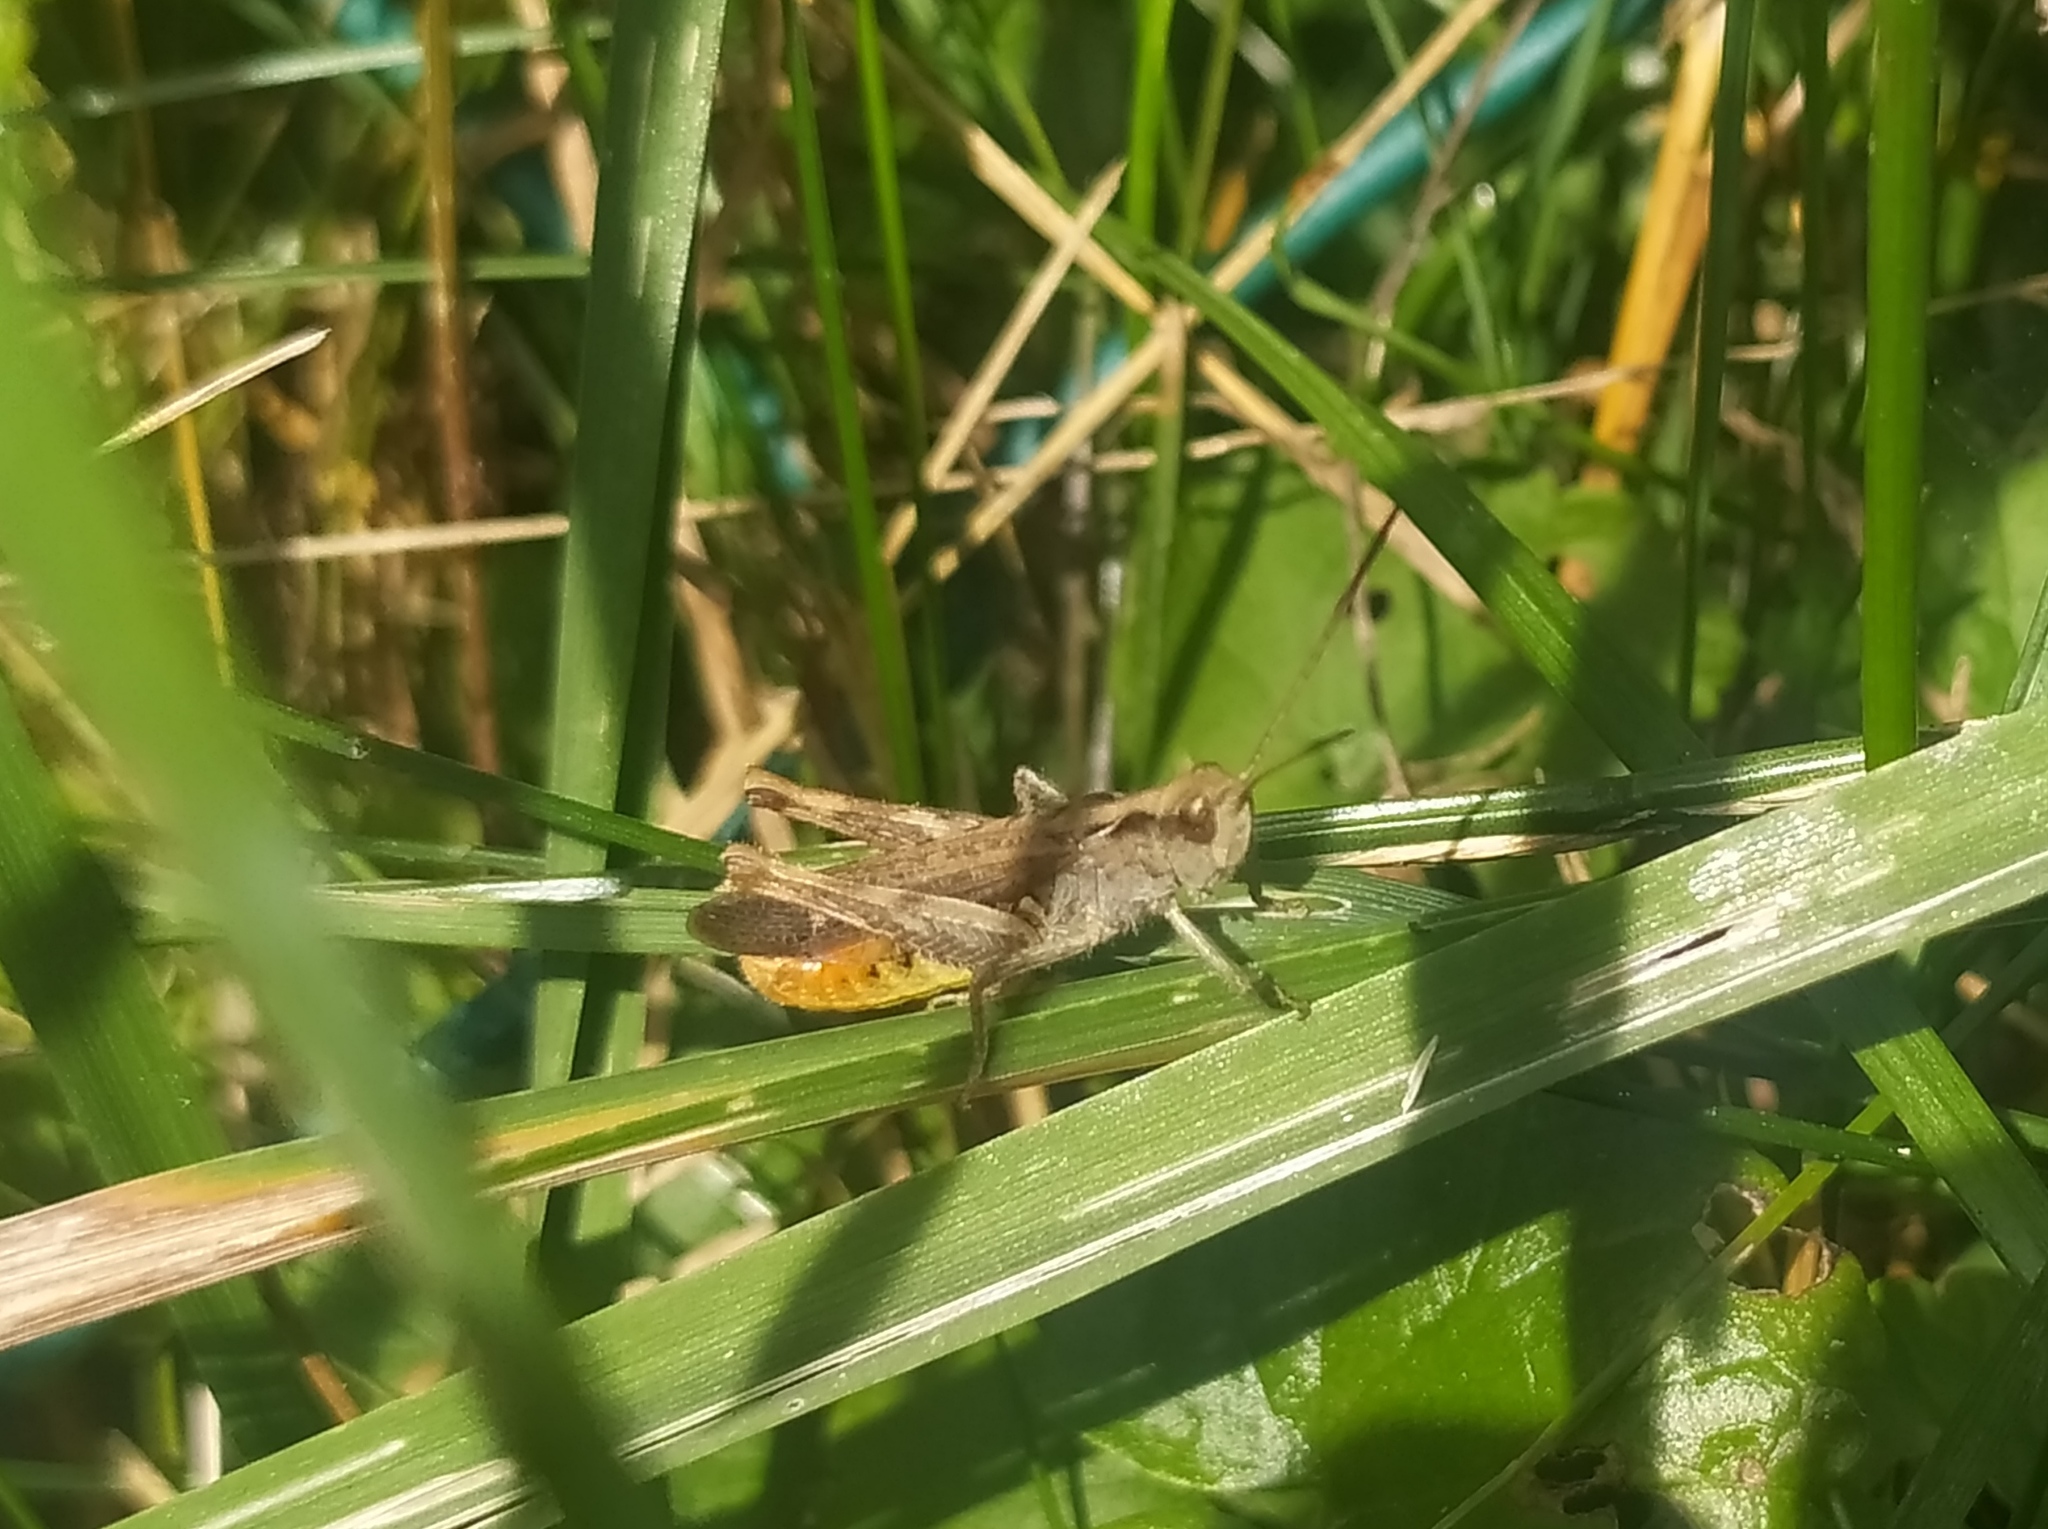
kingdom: Animalia
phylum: Arthropoda
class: Insecta
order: Orthoptera
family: Acrididae
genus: Chorthippus
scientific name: Chorthippus biguttulus
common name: Bow-winged grasshopper
